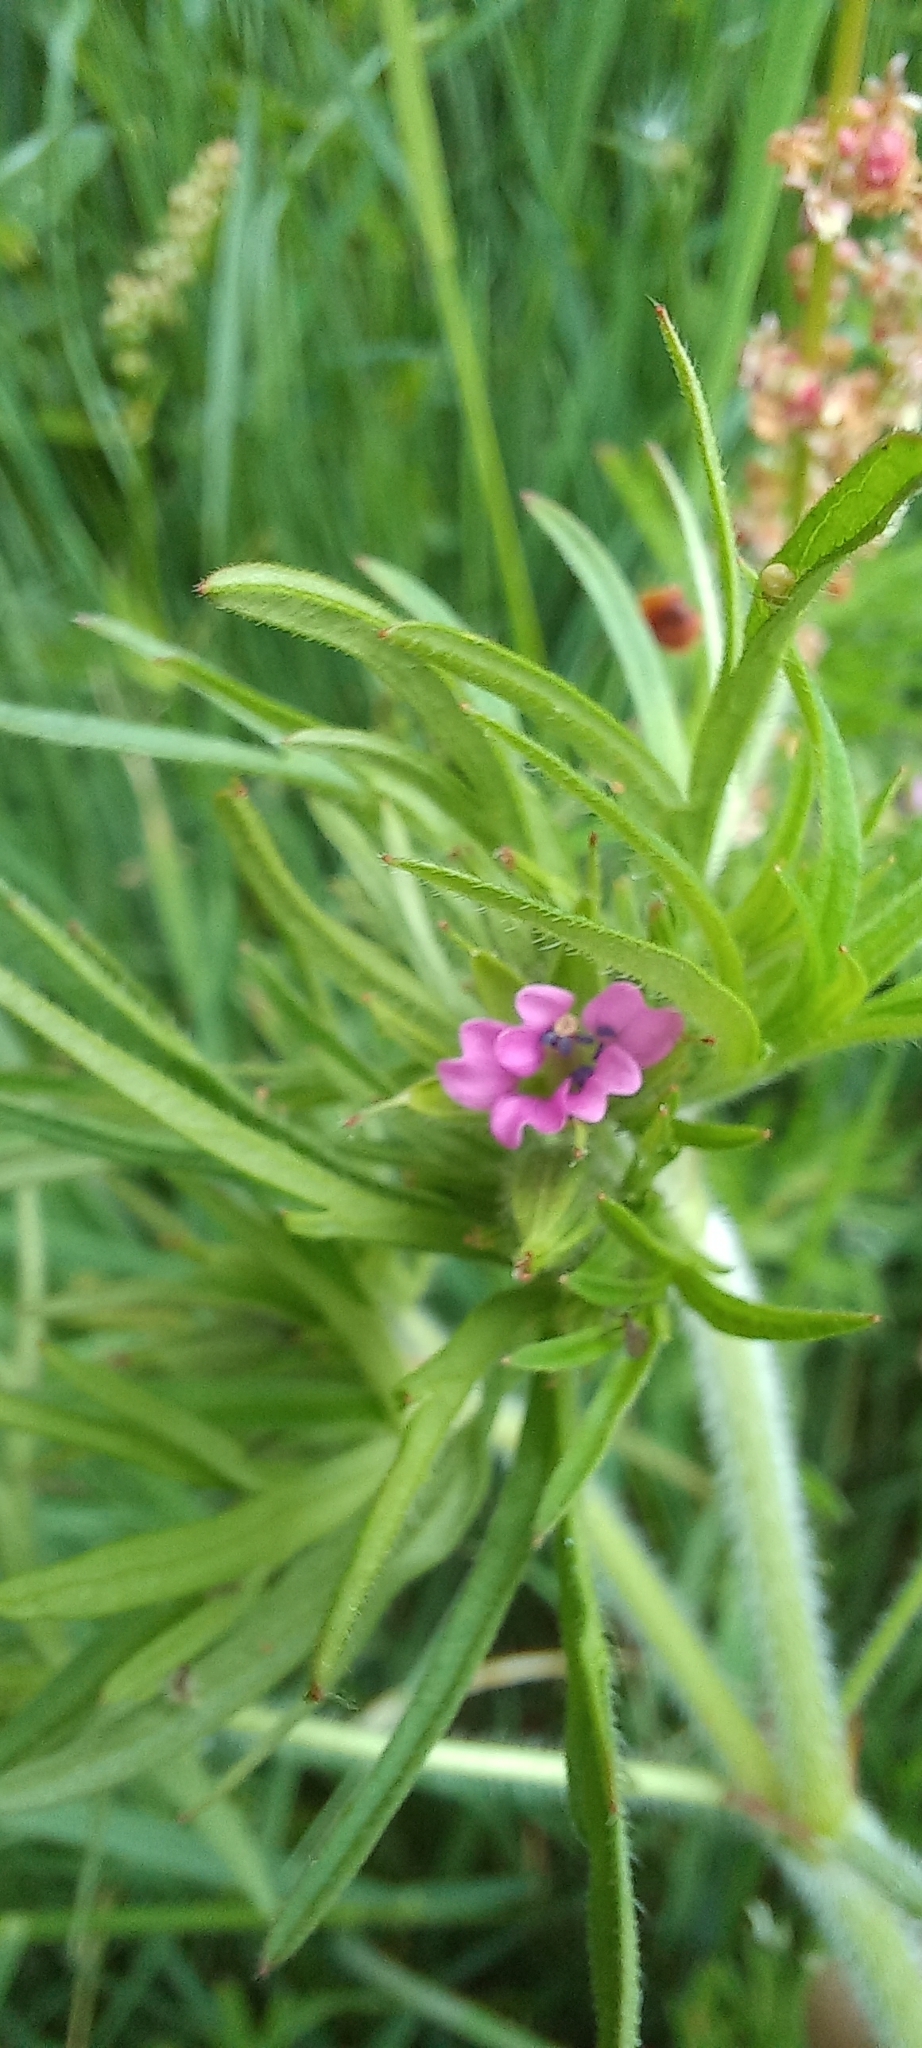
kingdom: Plantae
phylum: Tracheophyta
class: Magnoliopsida
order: Geraniales
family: Geraniaceae
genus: Geranium
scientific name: Geranium dissectum
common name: Cut-leaved crane's-bill
